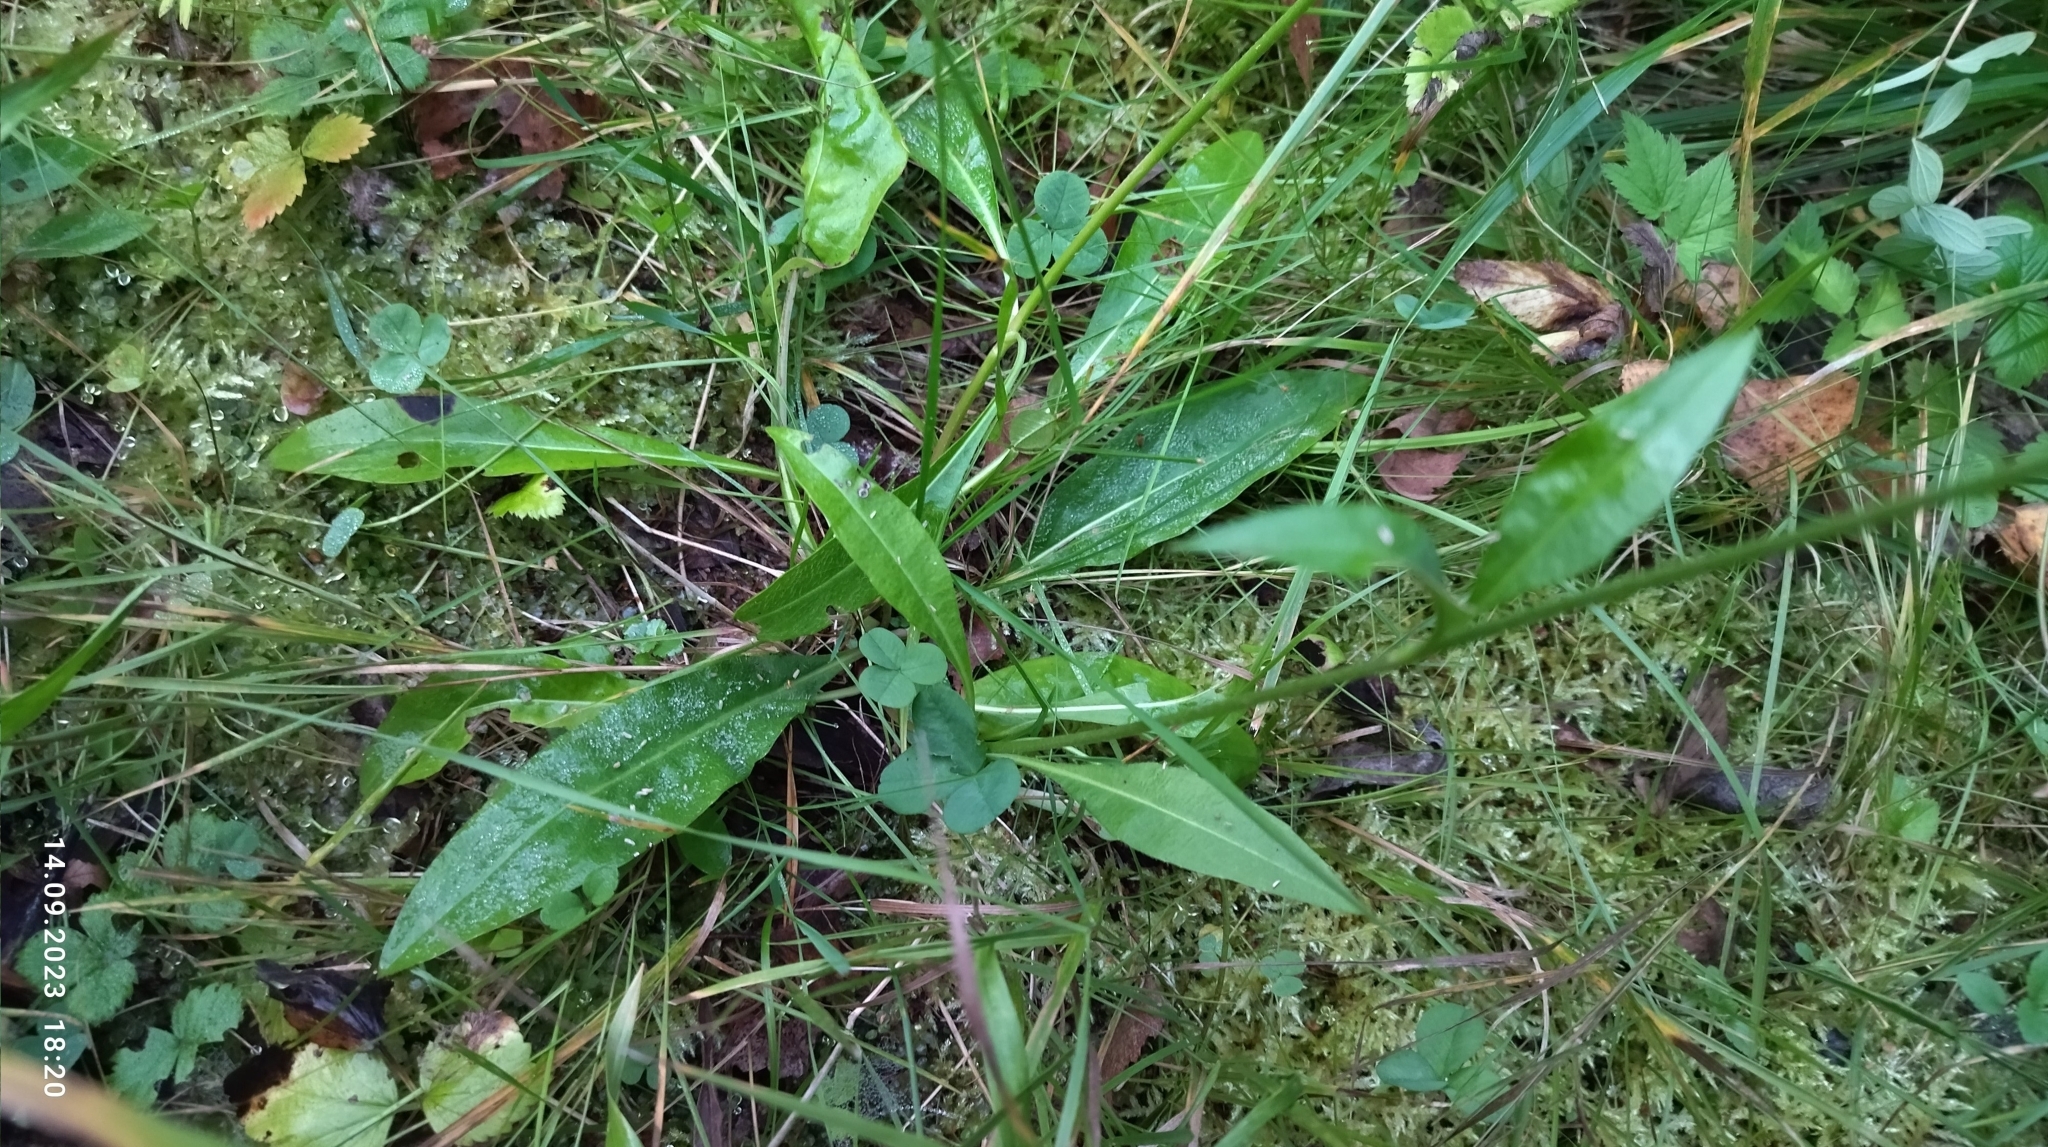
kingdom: Plantae
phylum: Tracheophyta
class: Magnoliopsida
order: Dipsacales
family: Caprifoliaceae
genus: Succisa
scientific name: Succisa pratensis
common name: Devil's-bit
